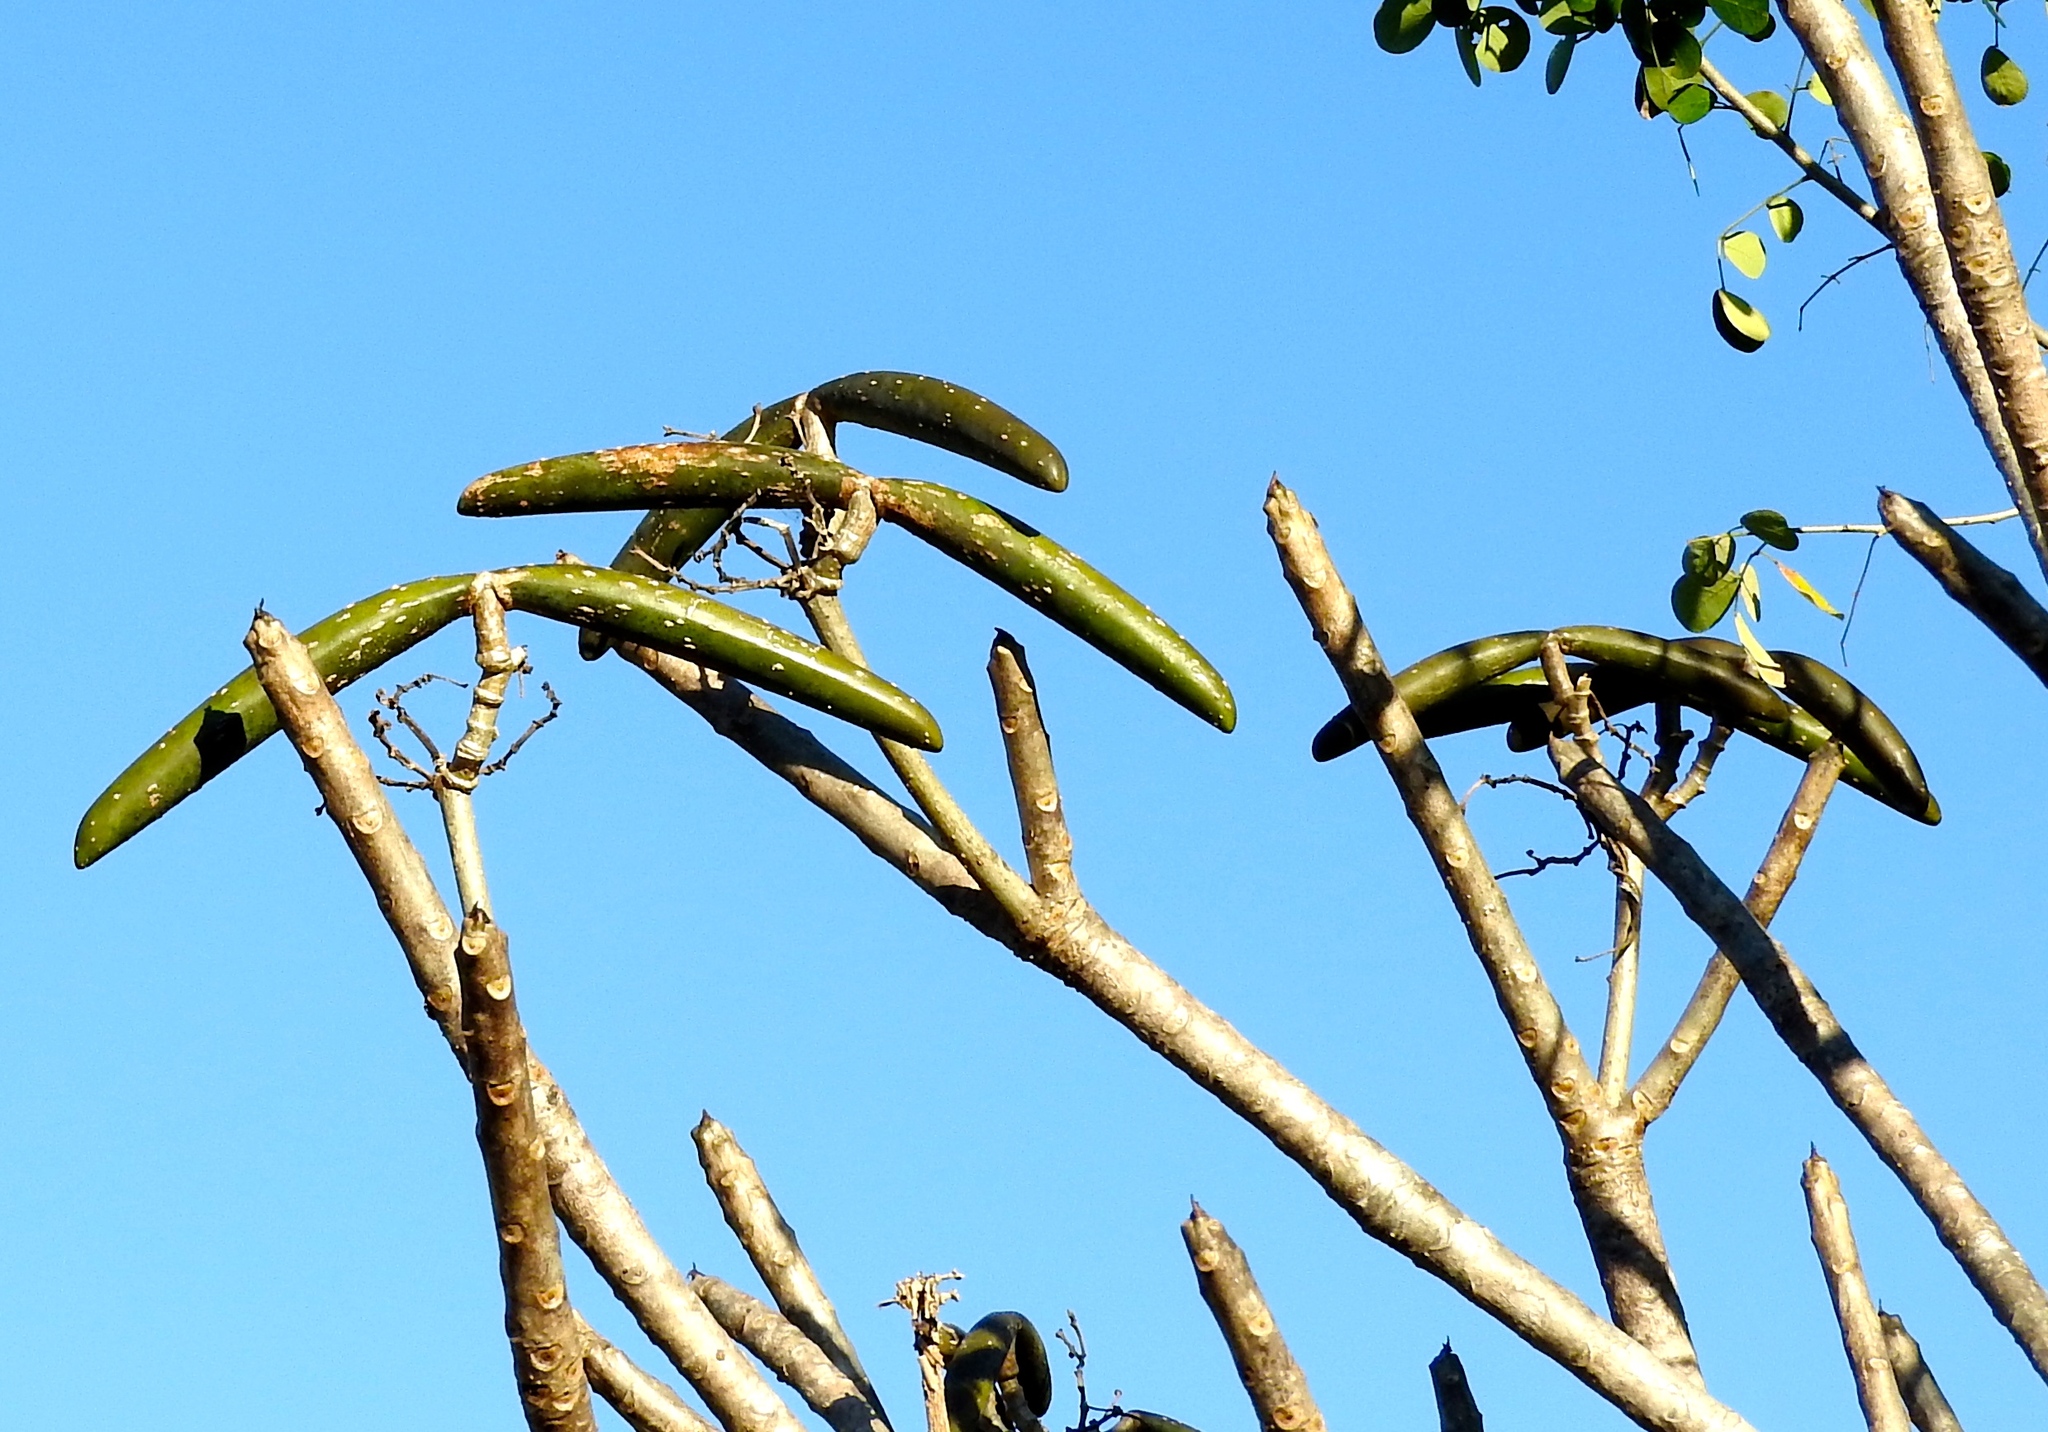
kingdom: Plantae
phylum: Tracheophyta
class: Magnoliopsida
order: Gentianales
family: Apocynaceae
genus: Plumeria
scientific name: Plumeria rubra
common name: Pagoda-tree
